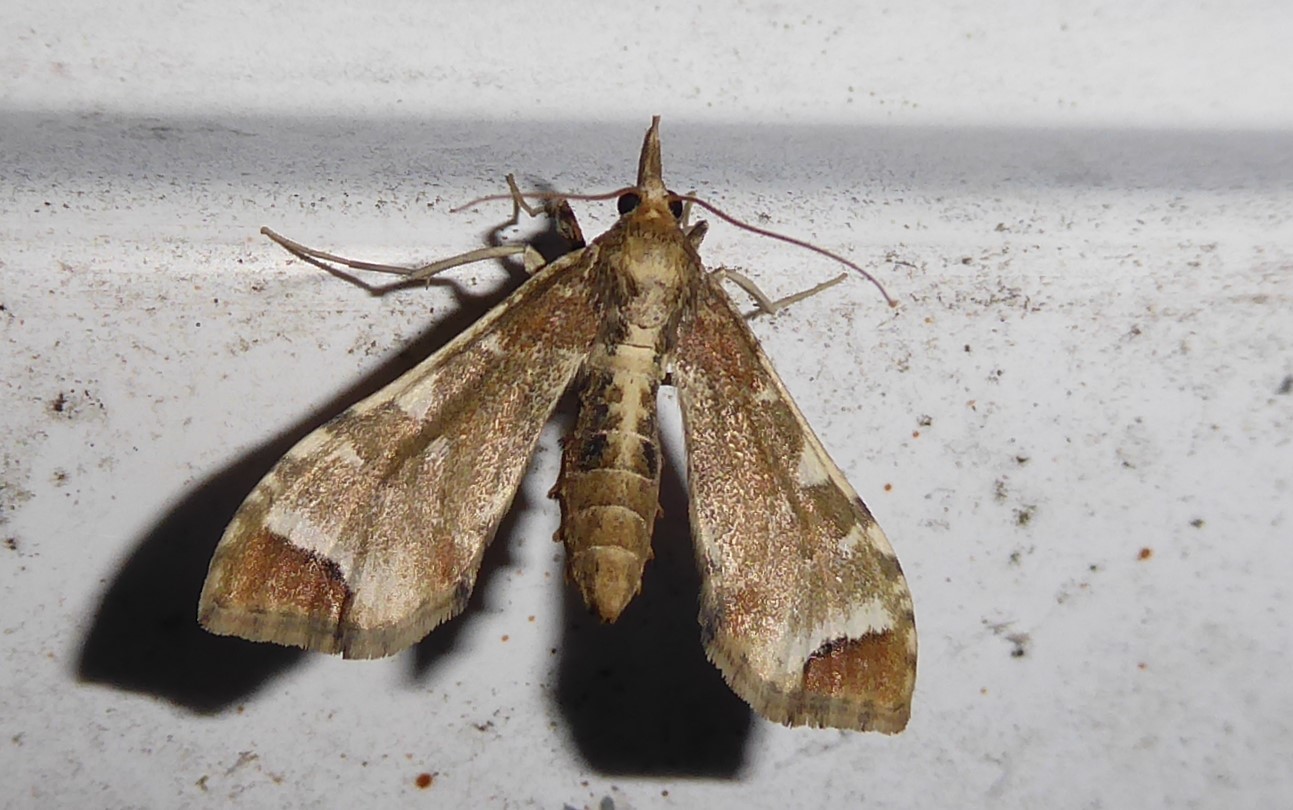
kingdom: Animalia
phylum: Arthropoda
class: Insecta
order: Lepidoptera
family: Crambidae
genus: Sceliodes
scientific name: Sceliodes cordalis
